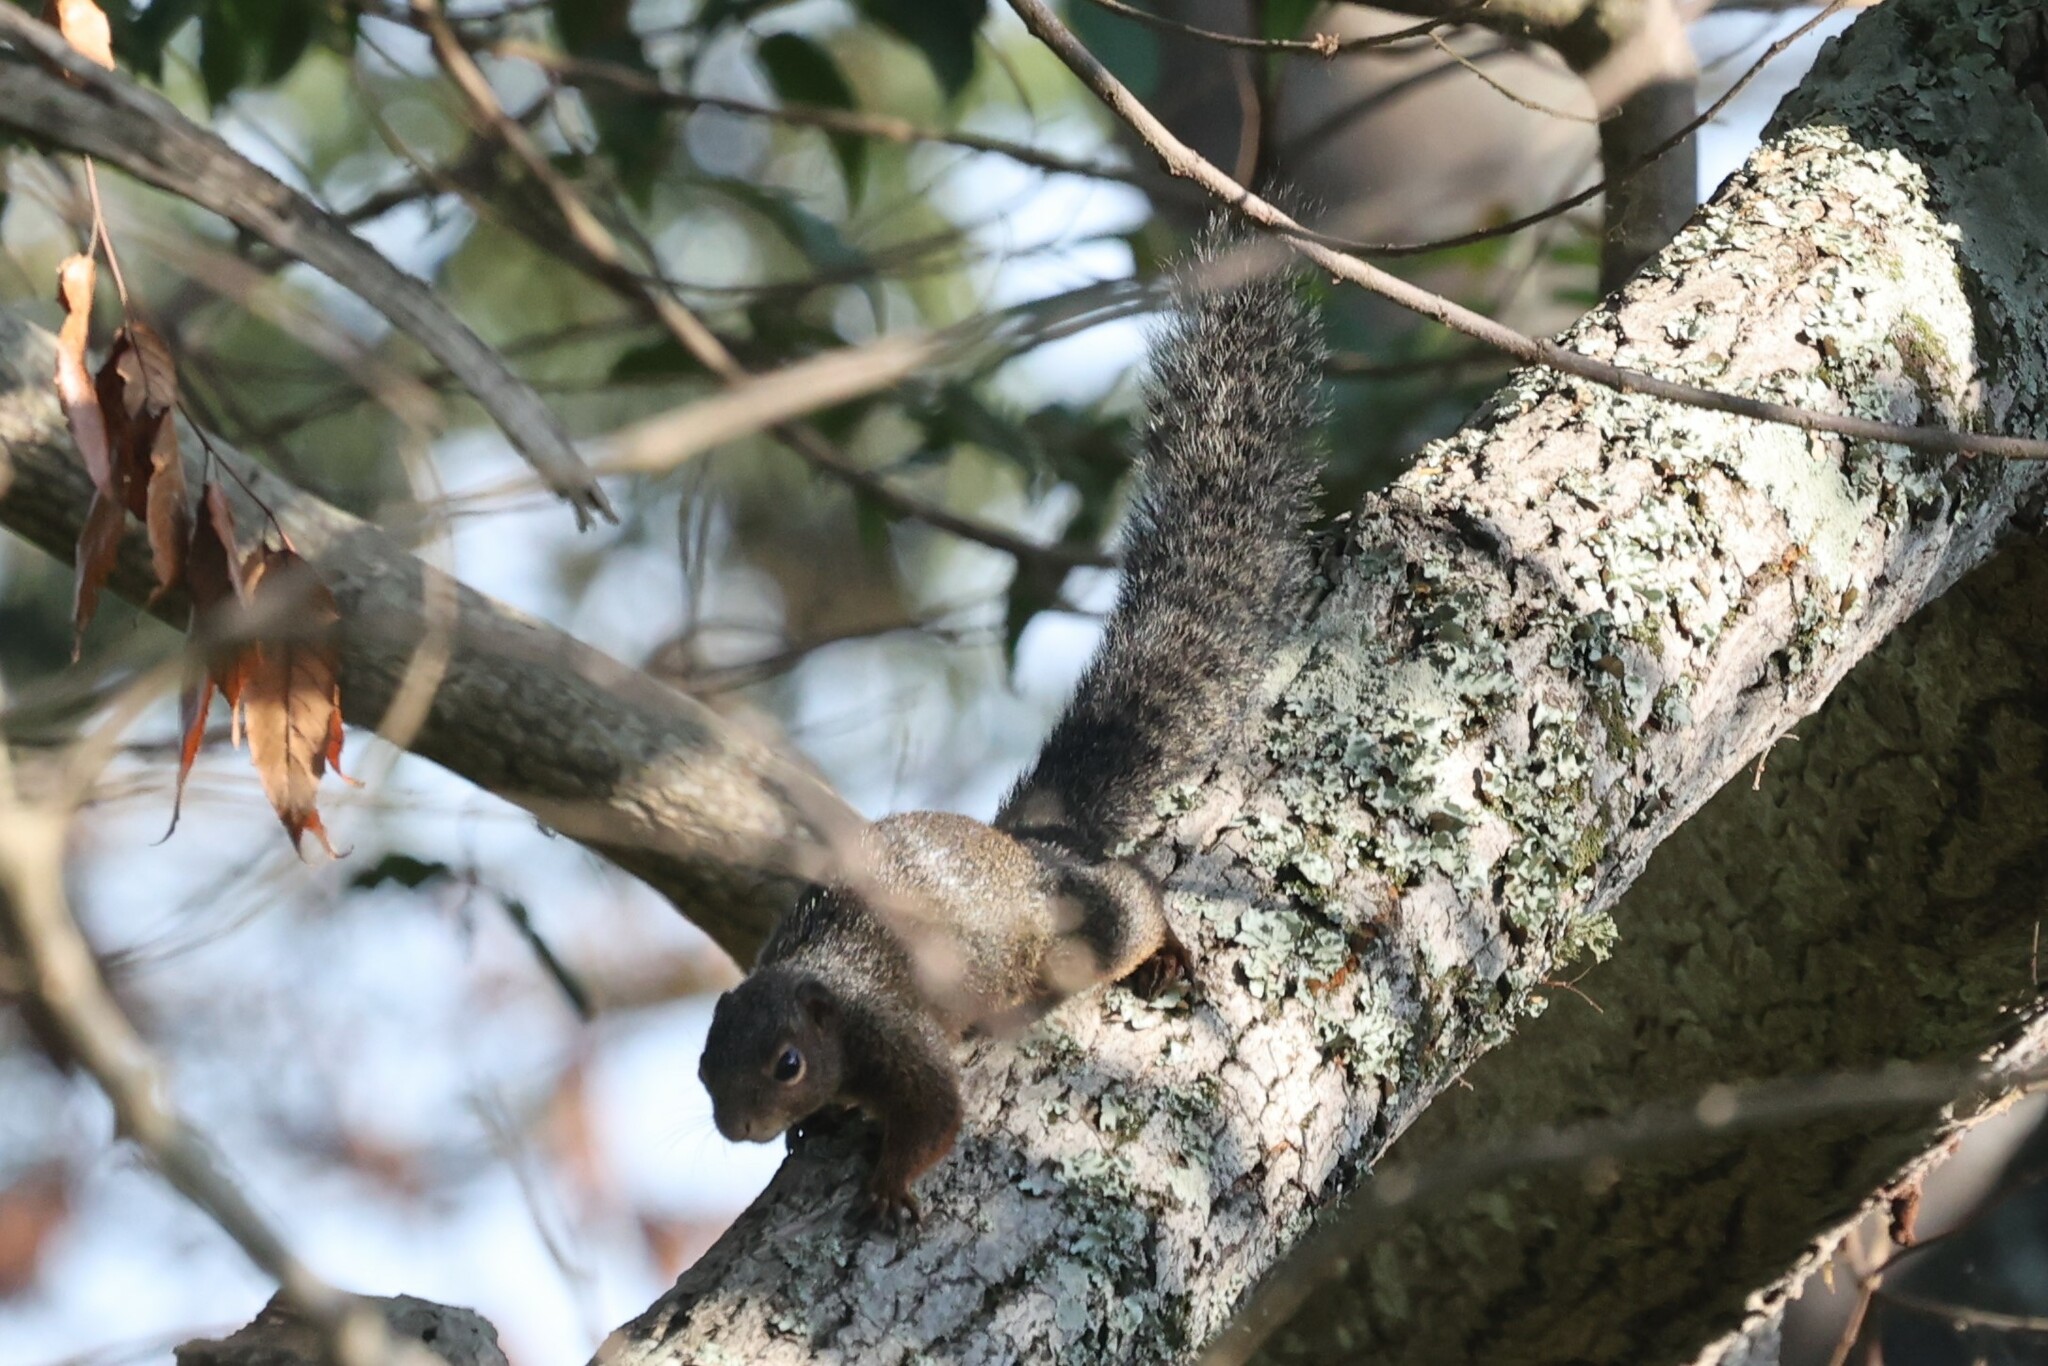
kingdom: Animalia
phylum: Chordata
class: Mammalia
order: Rodentia
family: Sciuridae
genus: Heliosciurus
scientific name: Heliosciurus rufobrachium
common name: Red-legged sun squirrel
